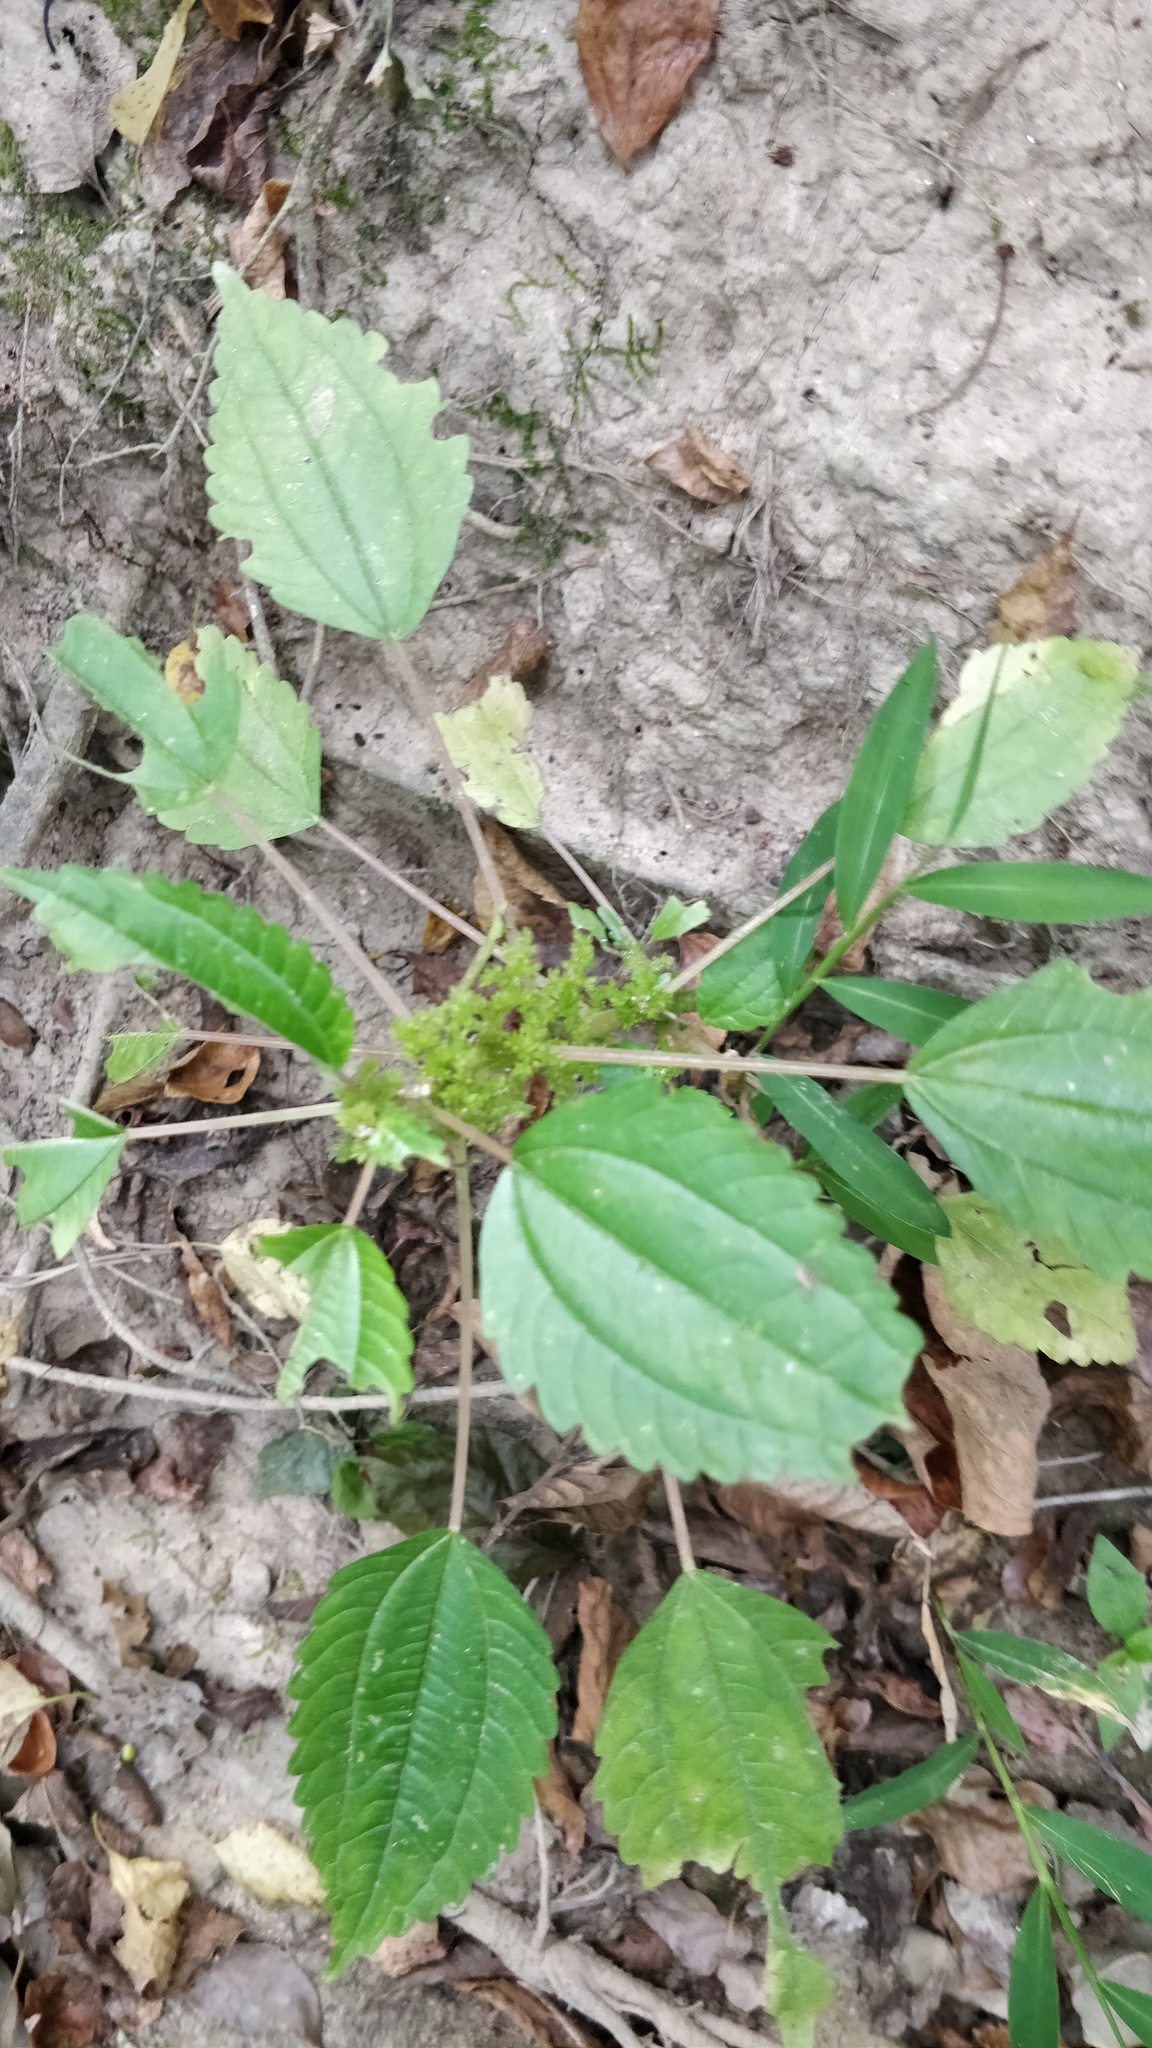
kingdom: Plantae
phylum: Tracheophyta
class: Magnoliopsida
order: Rosales
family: Urticaceae
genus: Pilea
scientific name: Pilea pumila
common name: Clearweed
